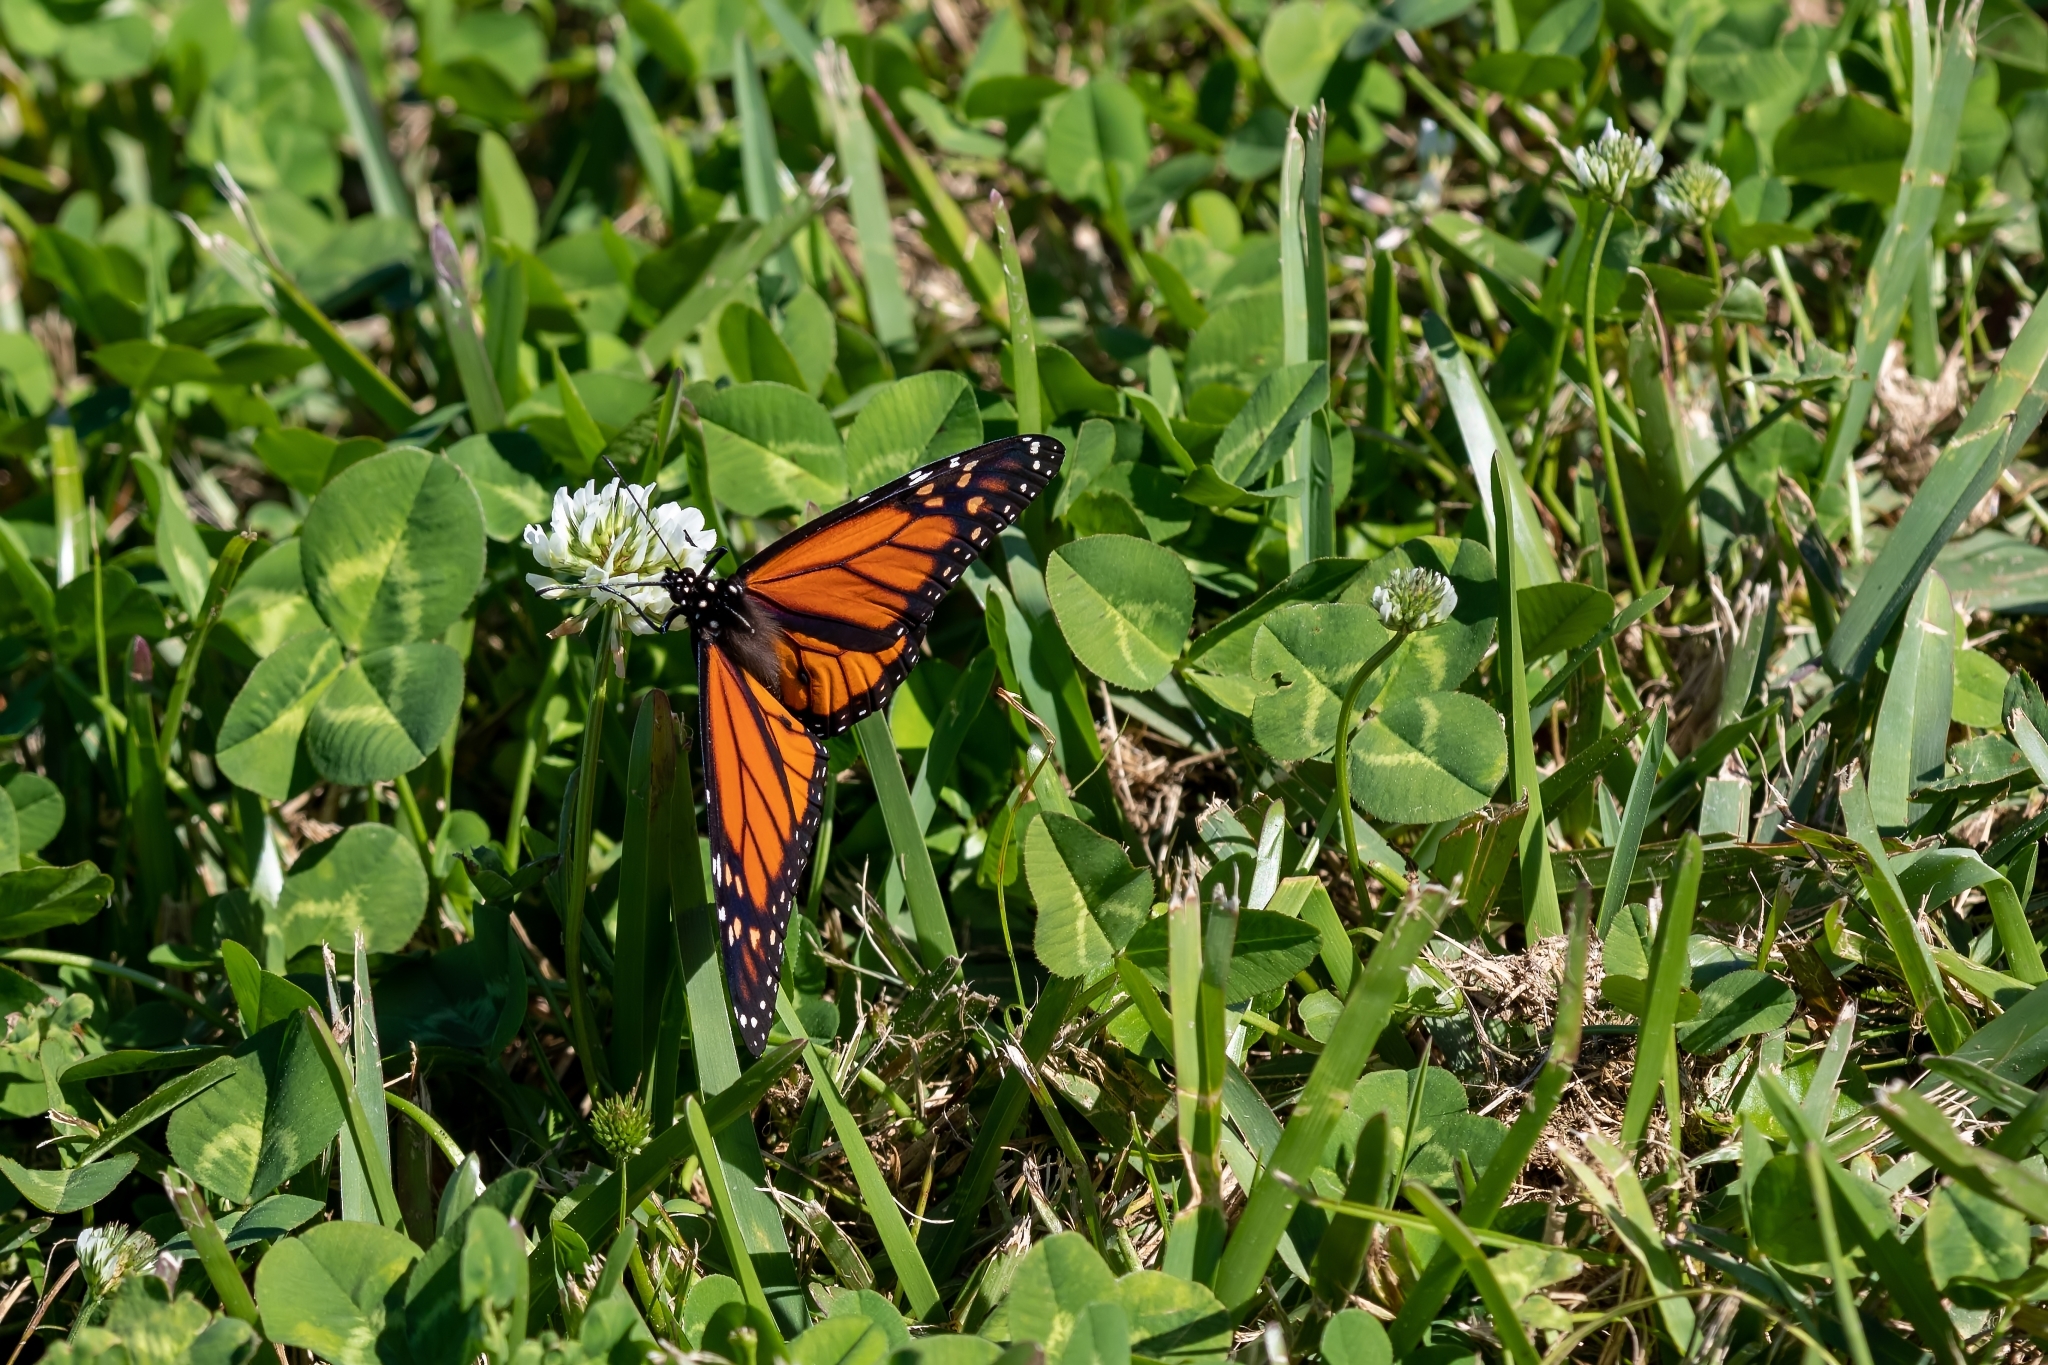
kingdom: Animalia
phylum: Arthropoda
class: Insecta
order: Lepidoptera
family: Nymphalidae
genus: Danaus
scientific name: Danaus plexippus
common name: Monarch
